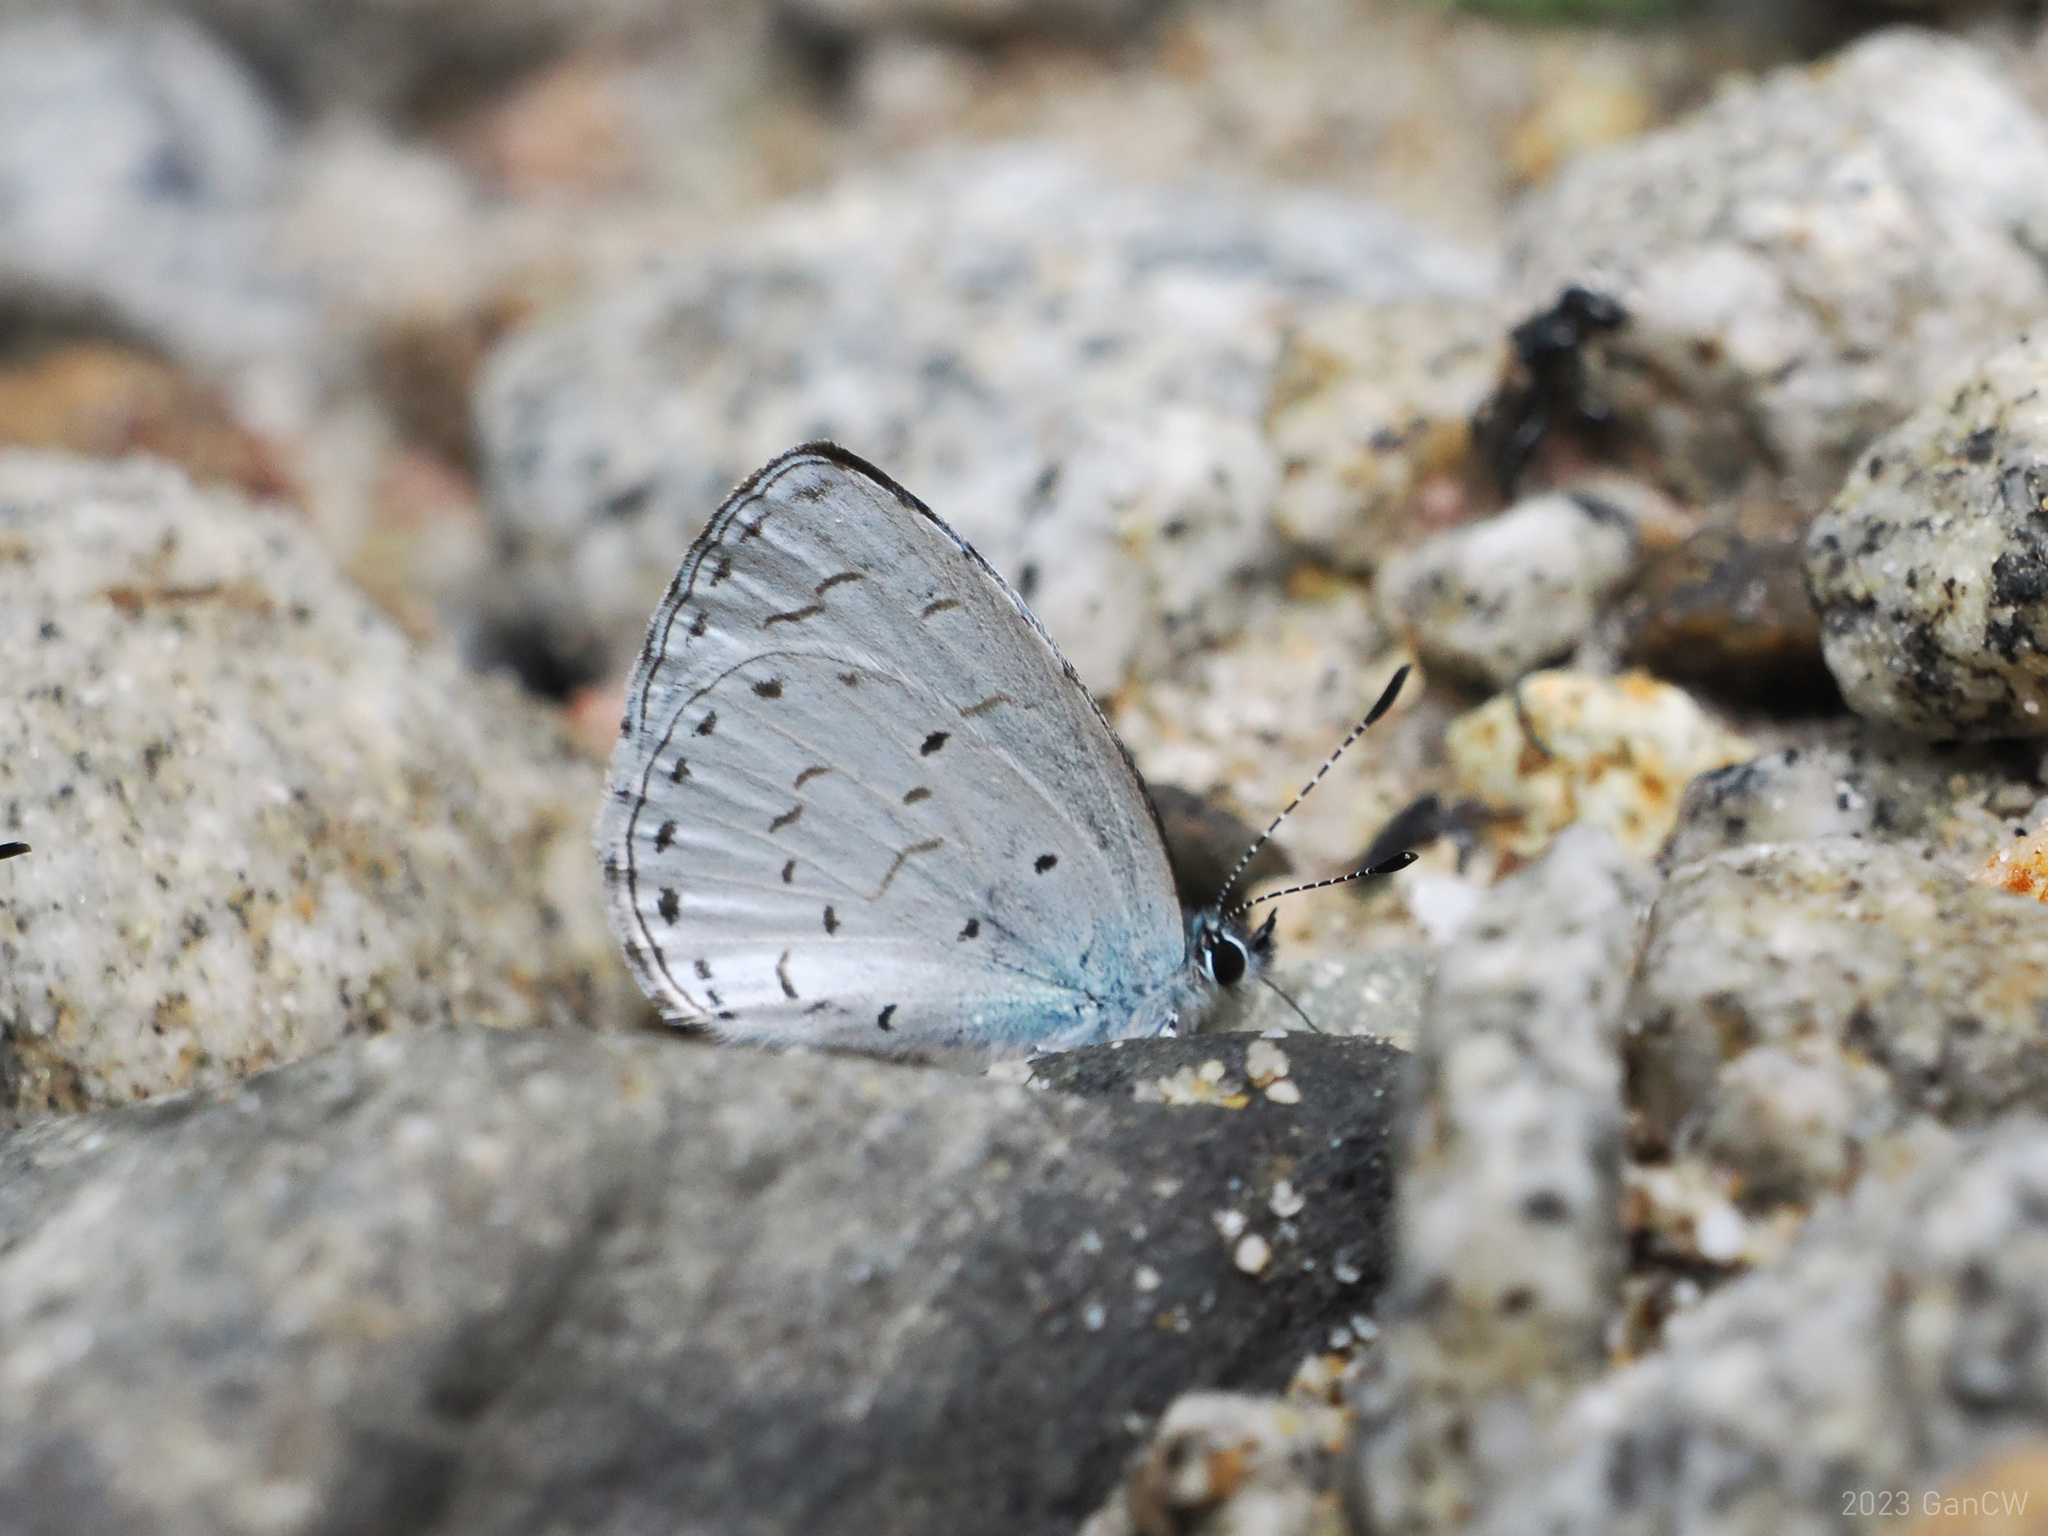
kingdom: Animalia
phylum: Arthropoda
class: Insecta
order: Lepidoptera
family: Lycaenidae
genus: Udara
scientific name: Udara camenae
